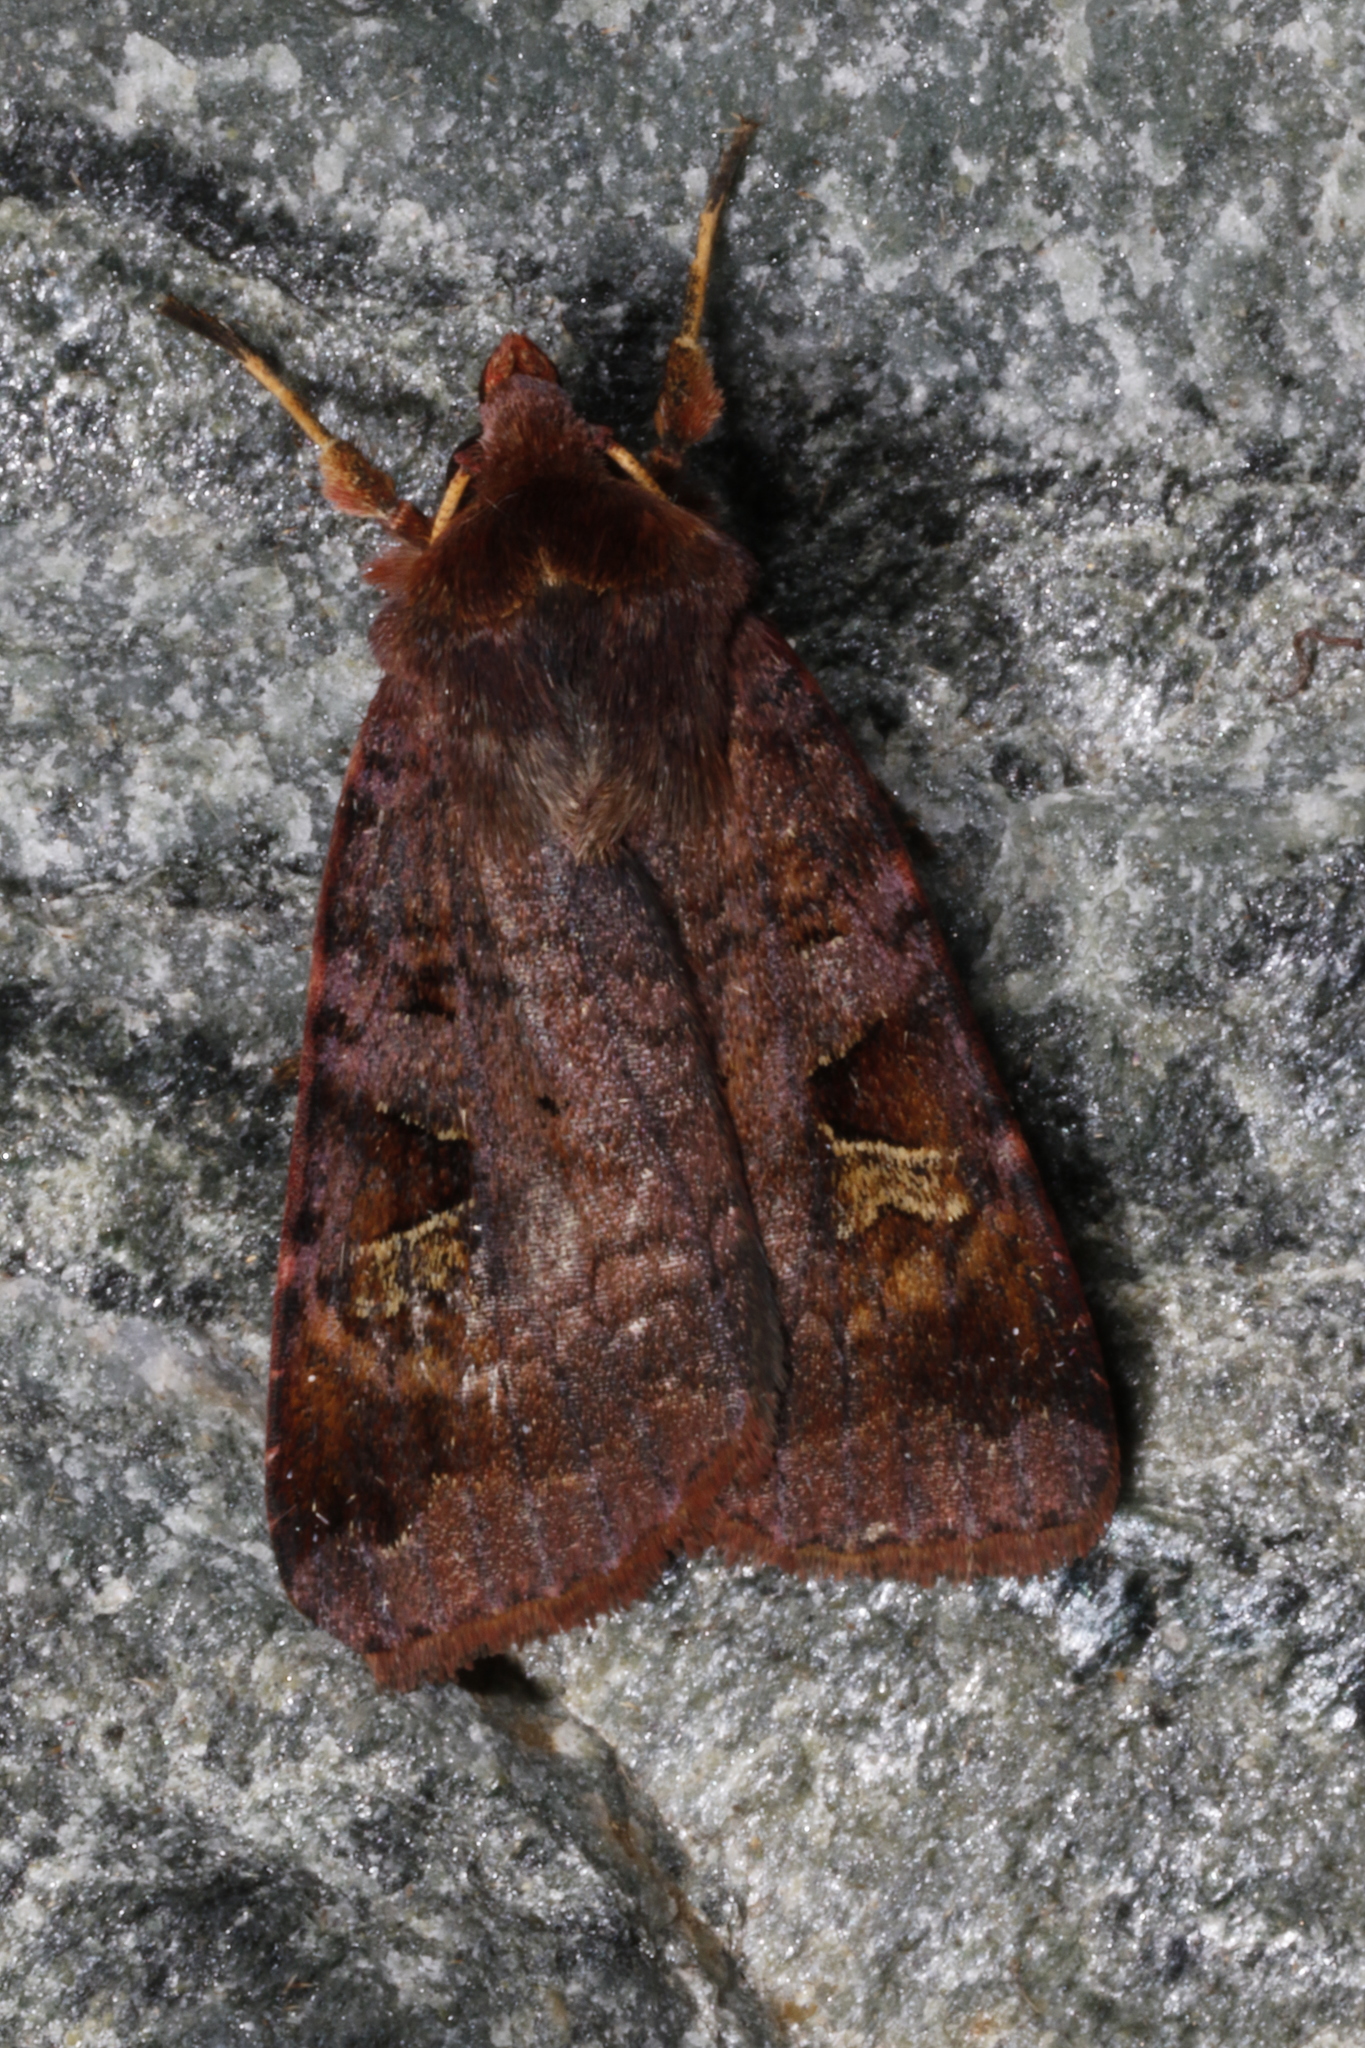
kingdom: Animalia
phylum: Arthropoda
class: Insecta
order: Lepidoptera
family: Noctuidae
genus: Diarsia
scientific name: Diarsia brunnea
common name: Purple clay
